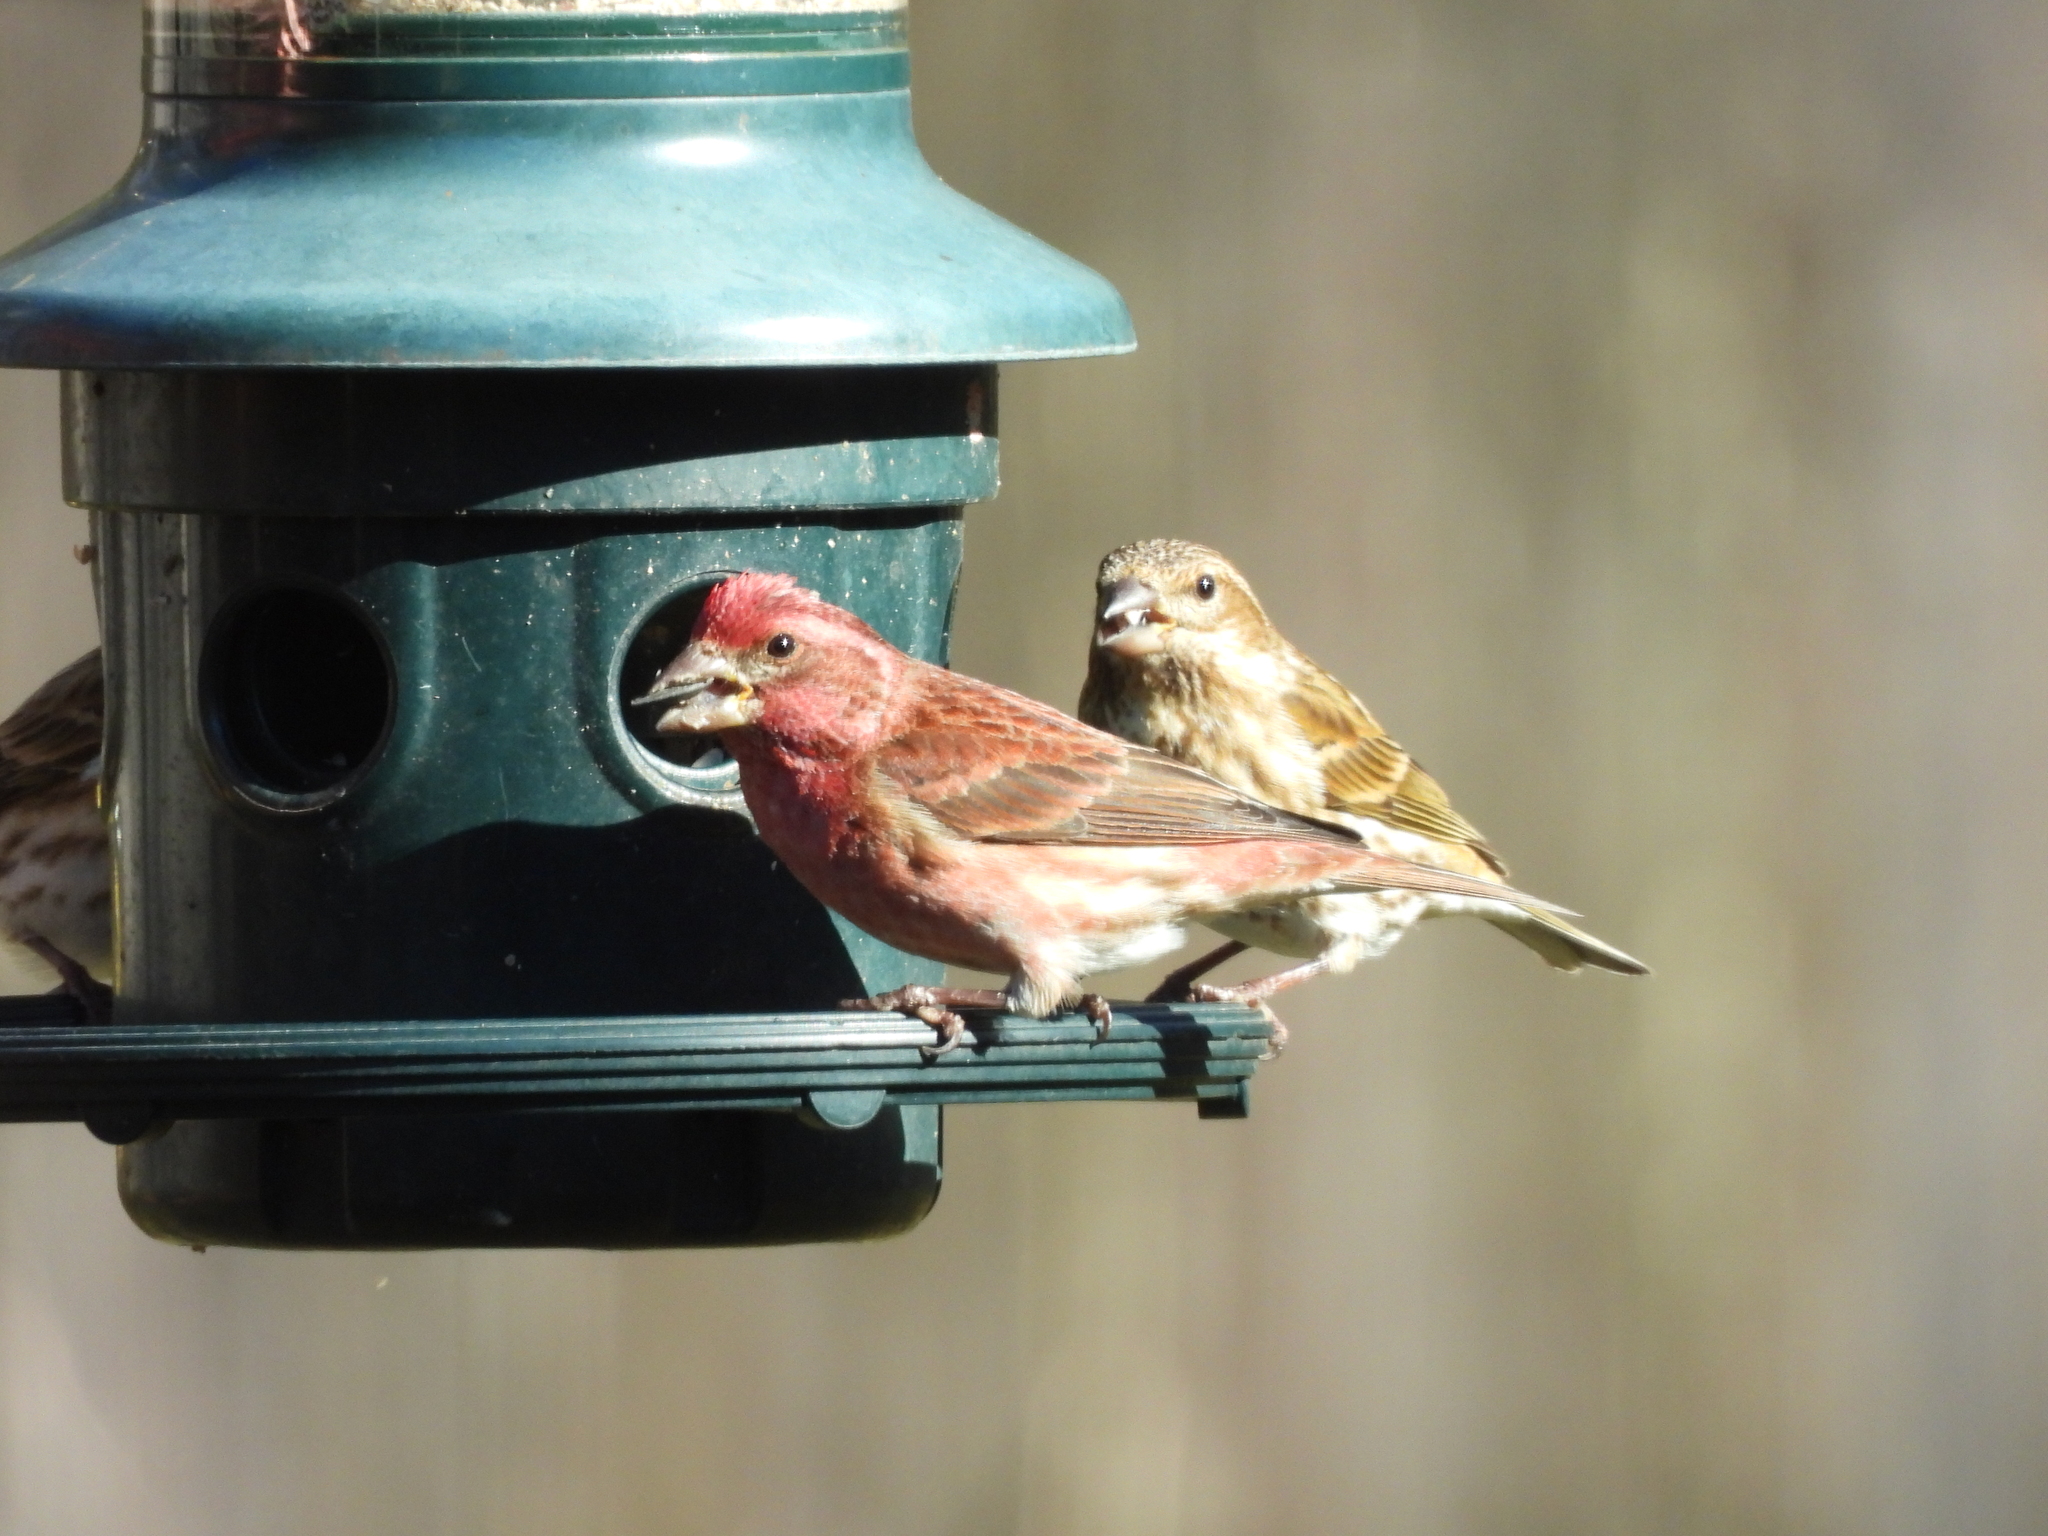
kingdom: Animalia
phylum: Chordata
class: Aves
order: Passeriformes
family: Fringillidae
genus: Haemorhous
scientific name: Haemorhous purpureus
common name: Purple finch
